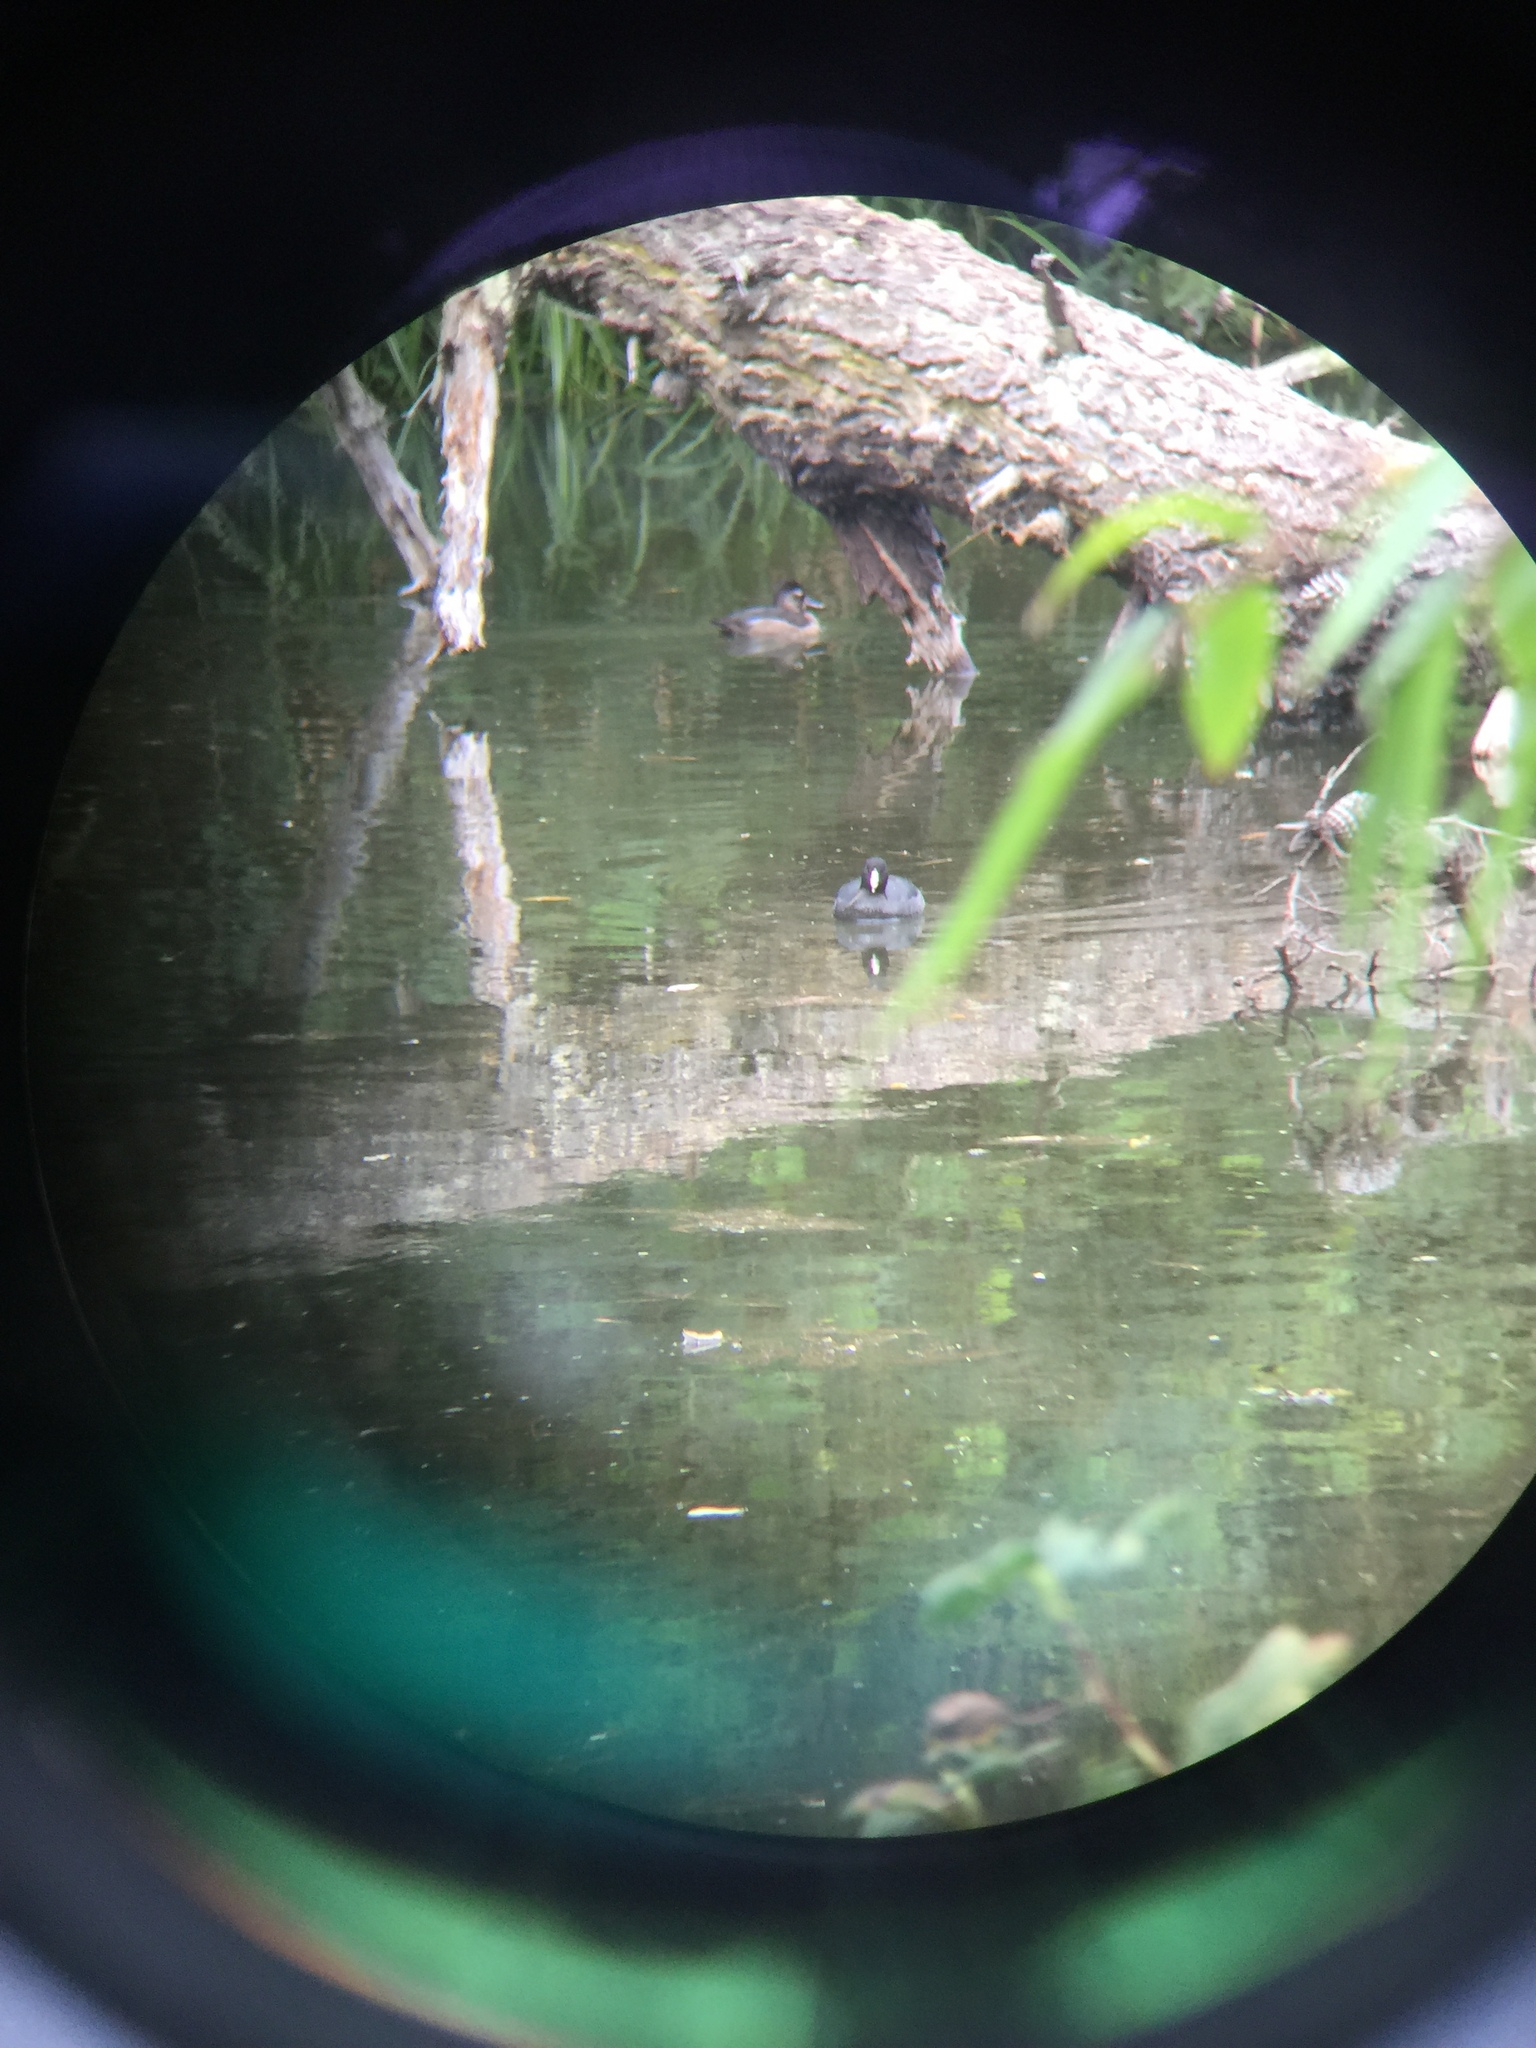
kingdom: Animalia
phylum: Chordata
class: Aves
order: Gruiformes
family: Rallidae
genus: Fulica
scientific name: Fulica americana
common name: American coot
